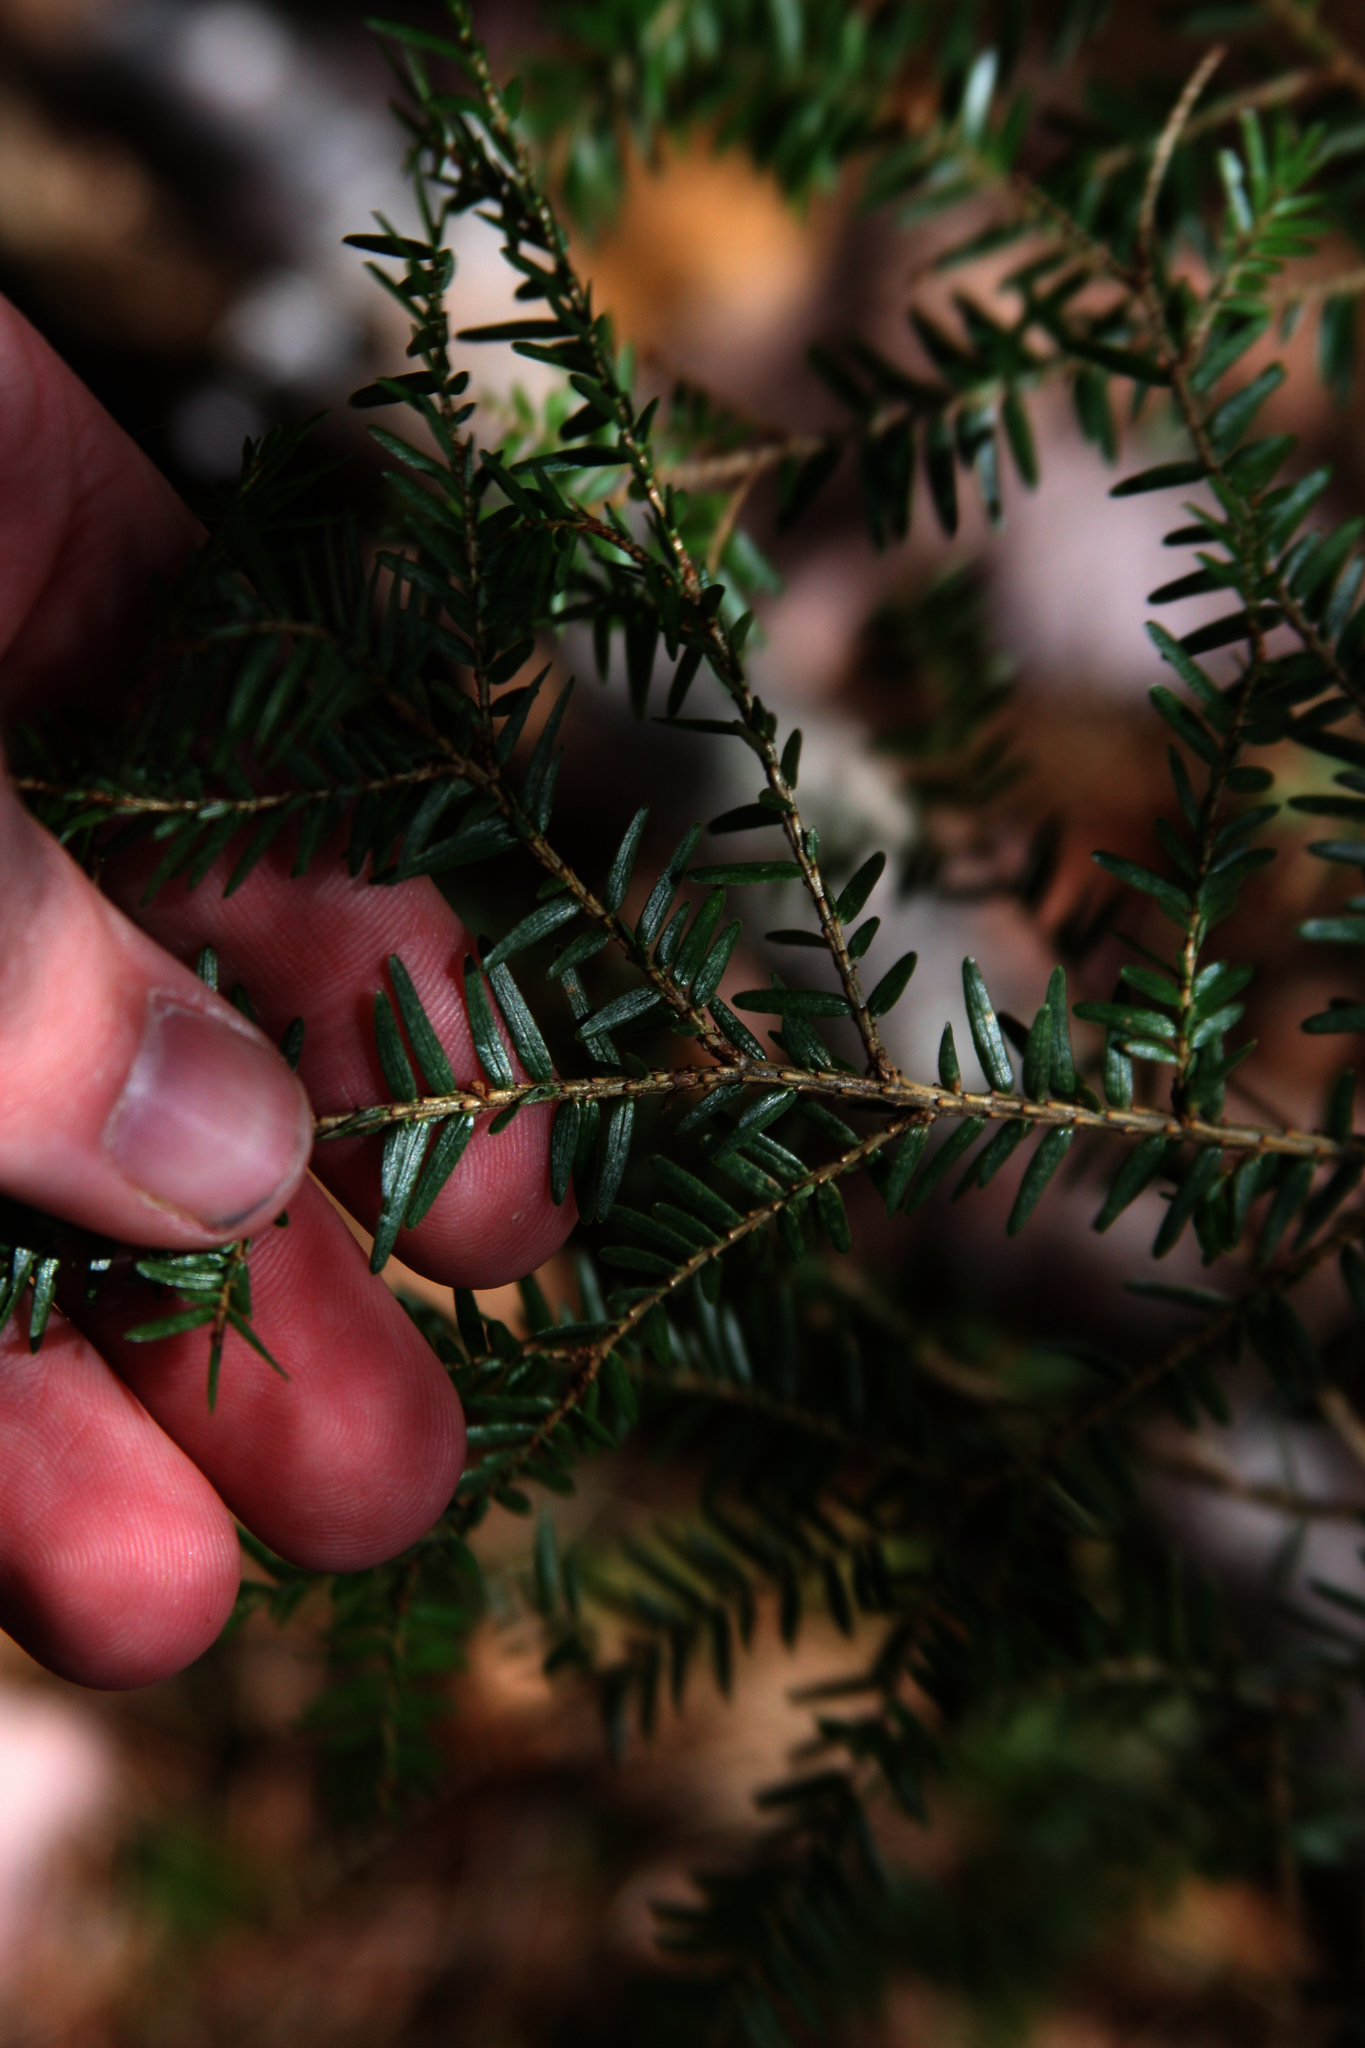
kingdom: Plantae
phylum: Tracheophyta
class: Pinopsida
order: Pinales
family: Pinaceae
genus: Tsuga
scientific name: Tsuga canadensis
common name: Eastern hemlock
